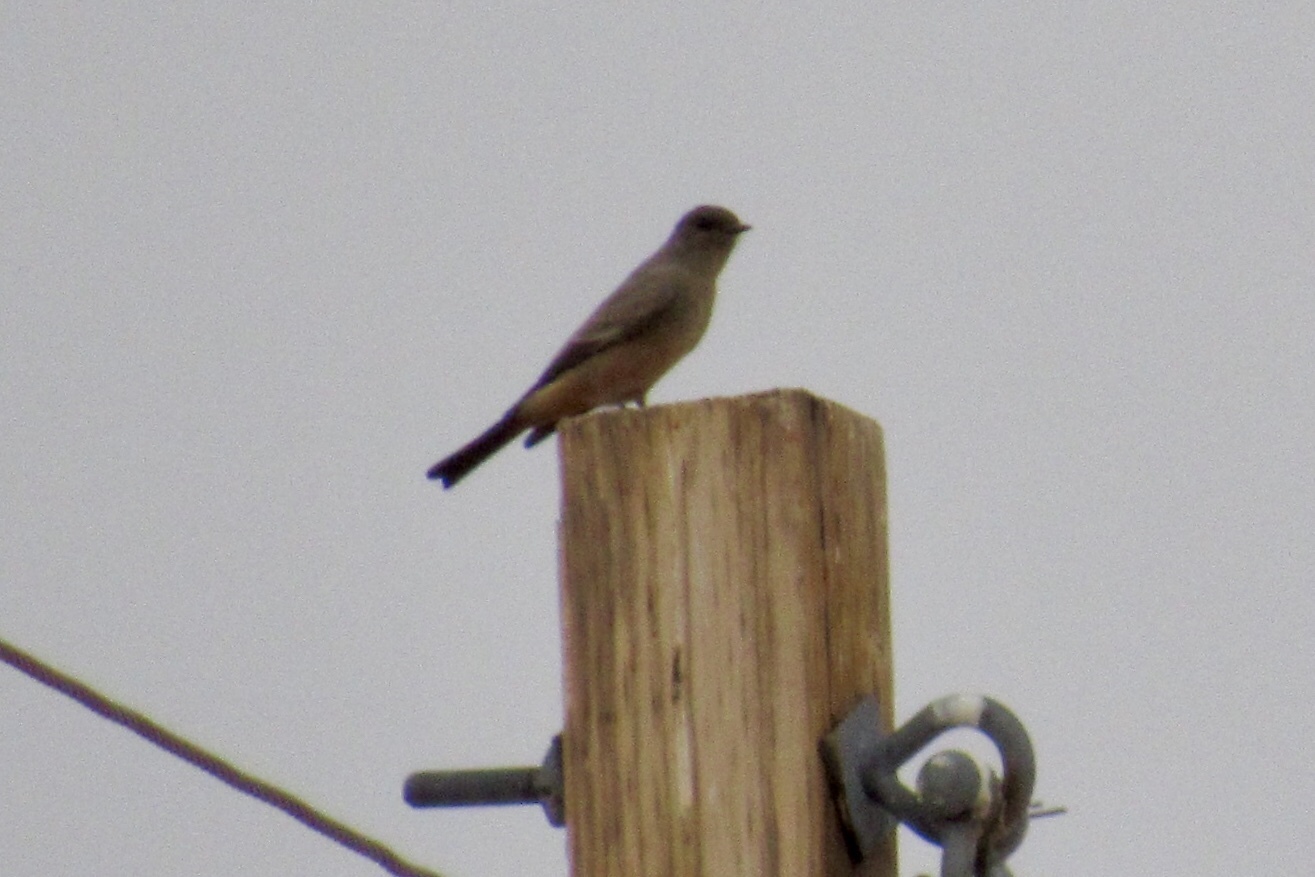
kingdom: Animalia
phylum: Chordata
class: Aves
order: Passeriformes
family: Tyrannidae
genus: Sayornis
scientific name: Sayornis saya
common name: Say's phoebe
